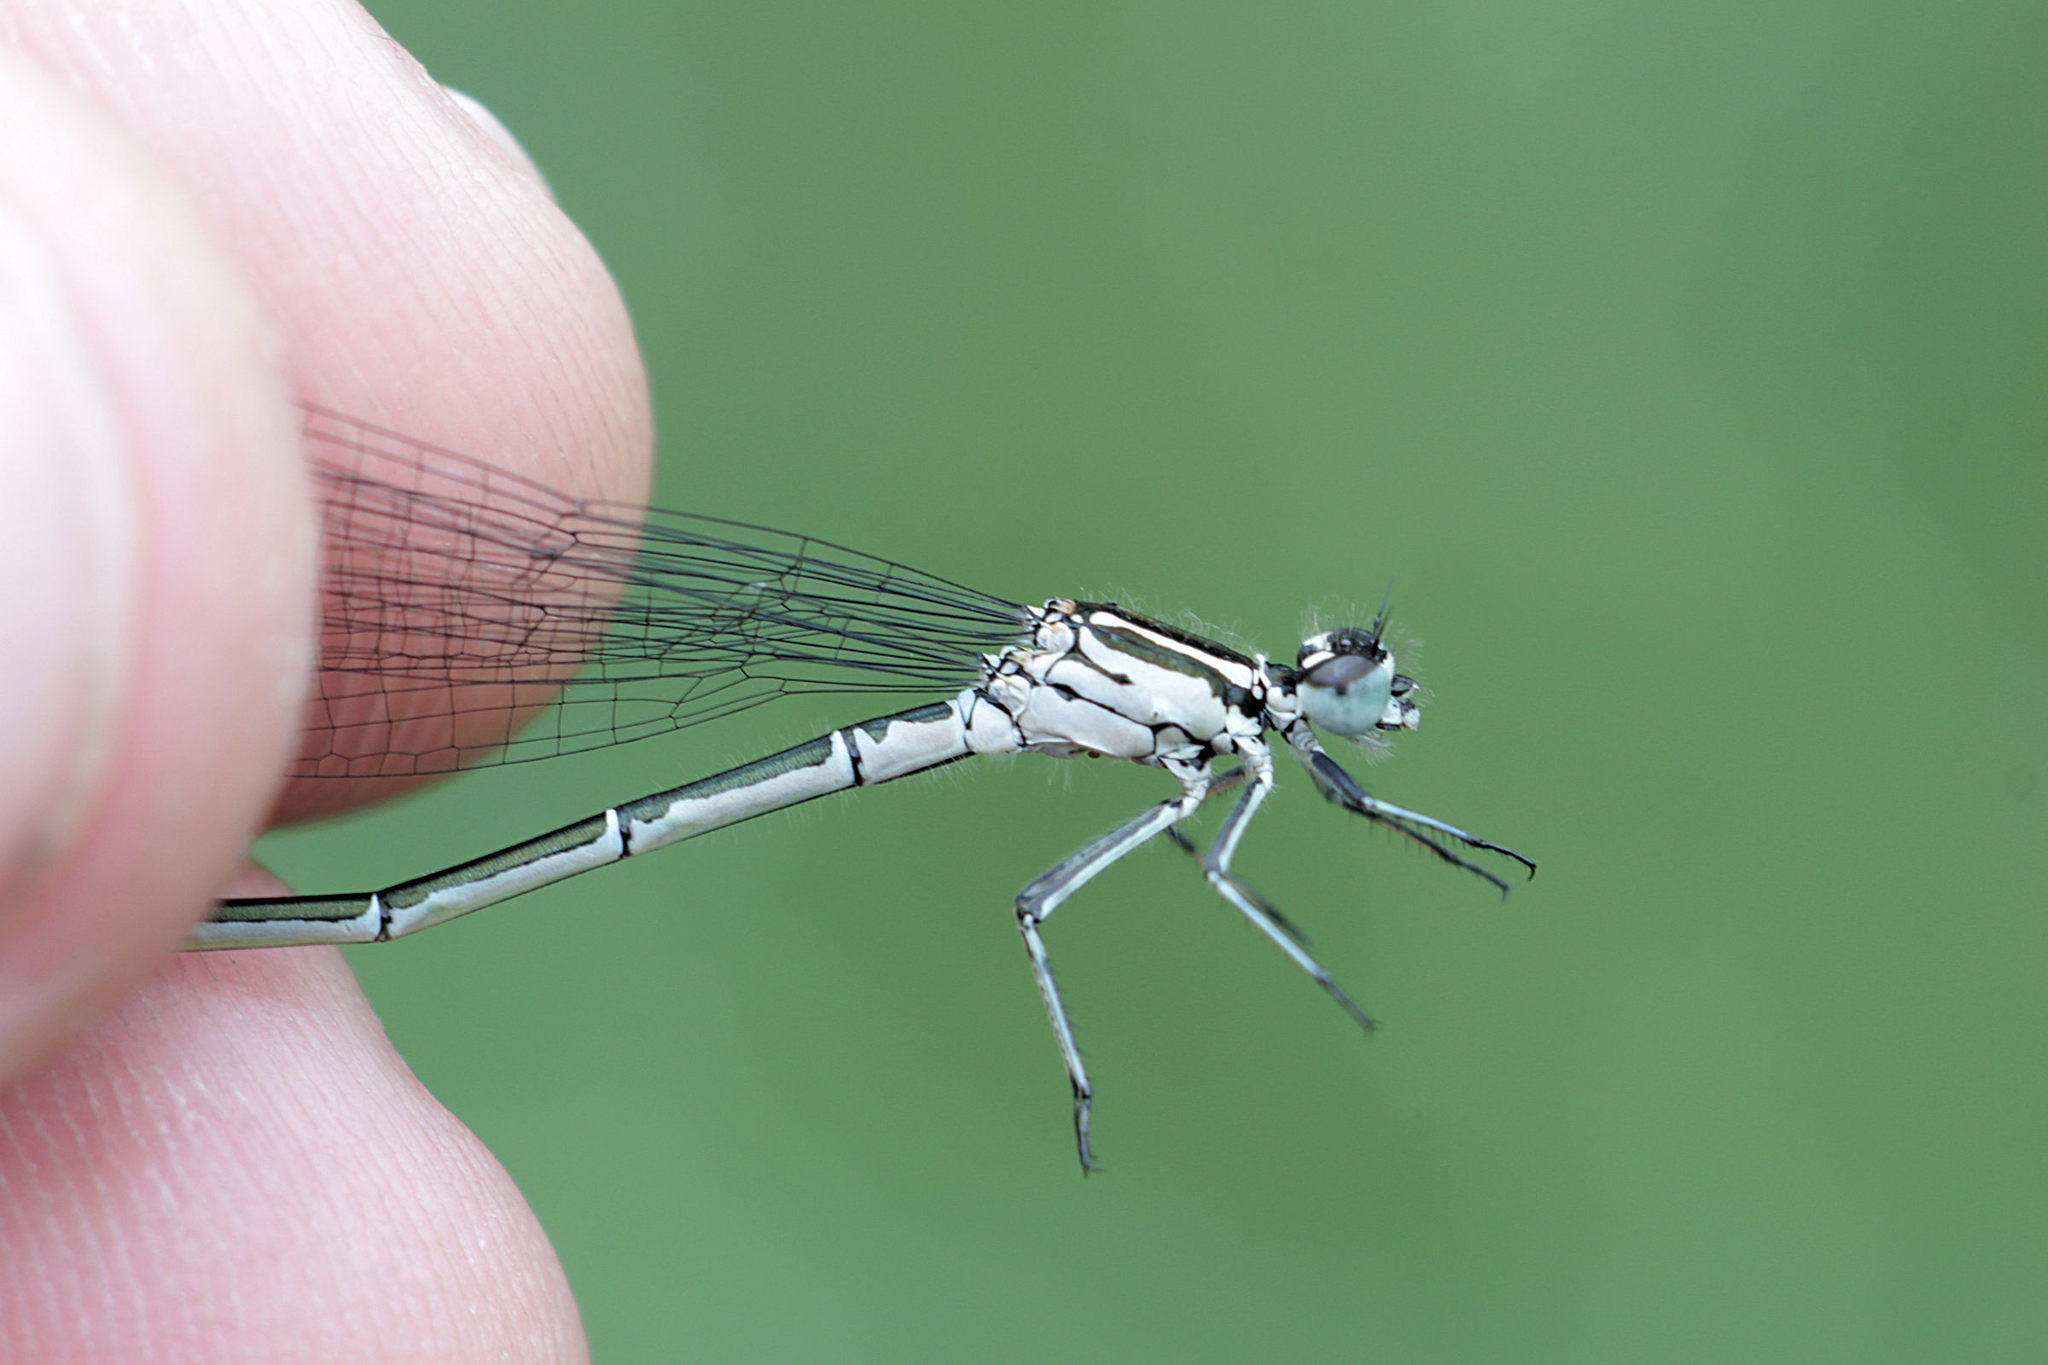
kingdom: Animalia
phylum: Arthropoda
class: Insecta
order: Odonata
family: Coenagrionidae
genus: Coenagrion
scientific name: Coenagrion puella
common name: Azure damselfly
